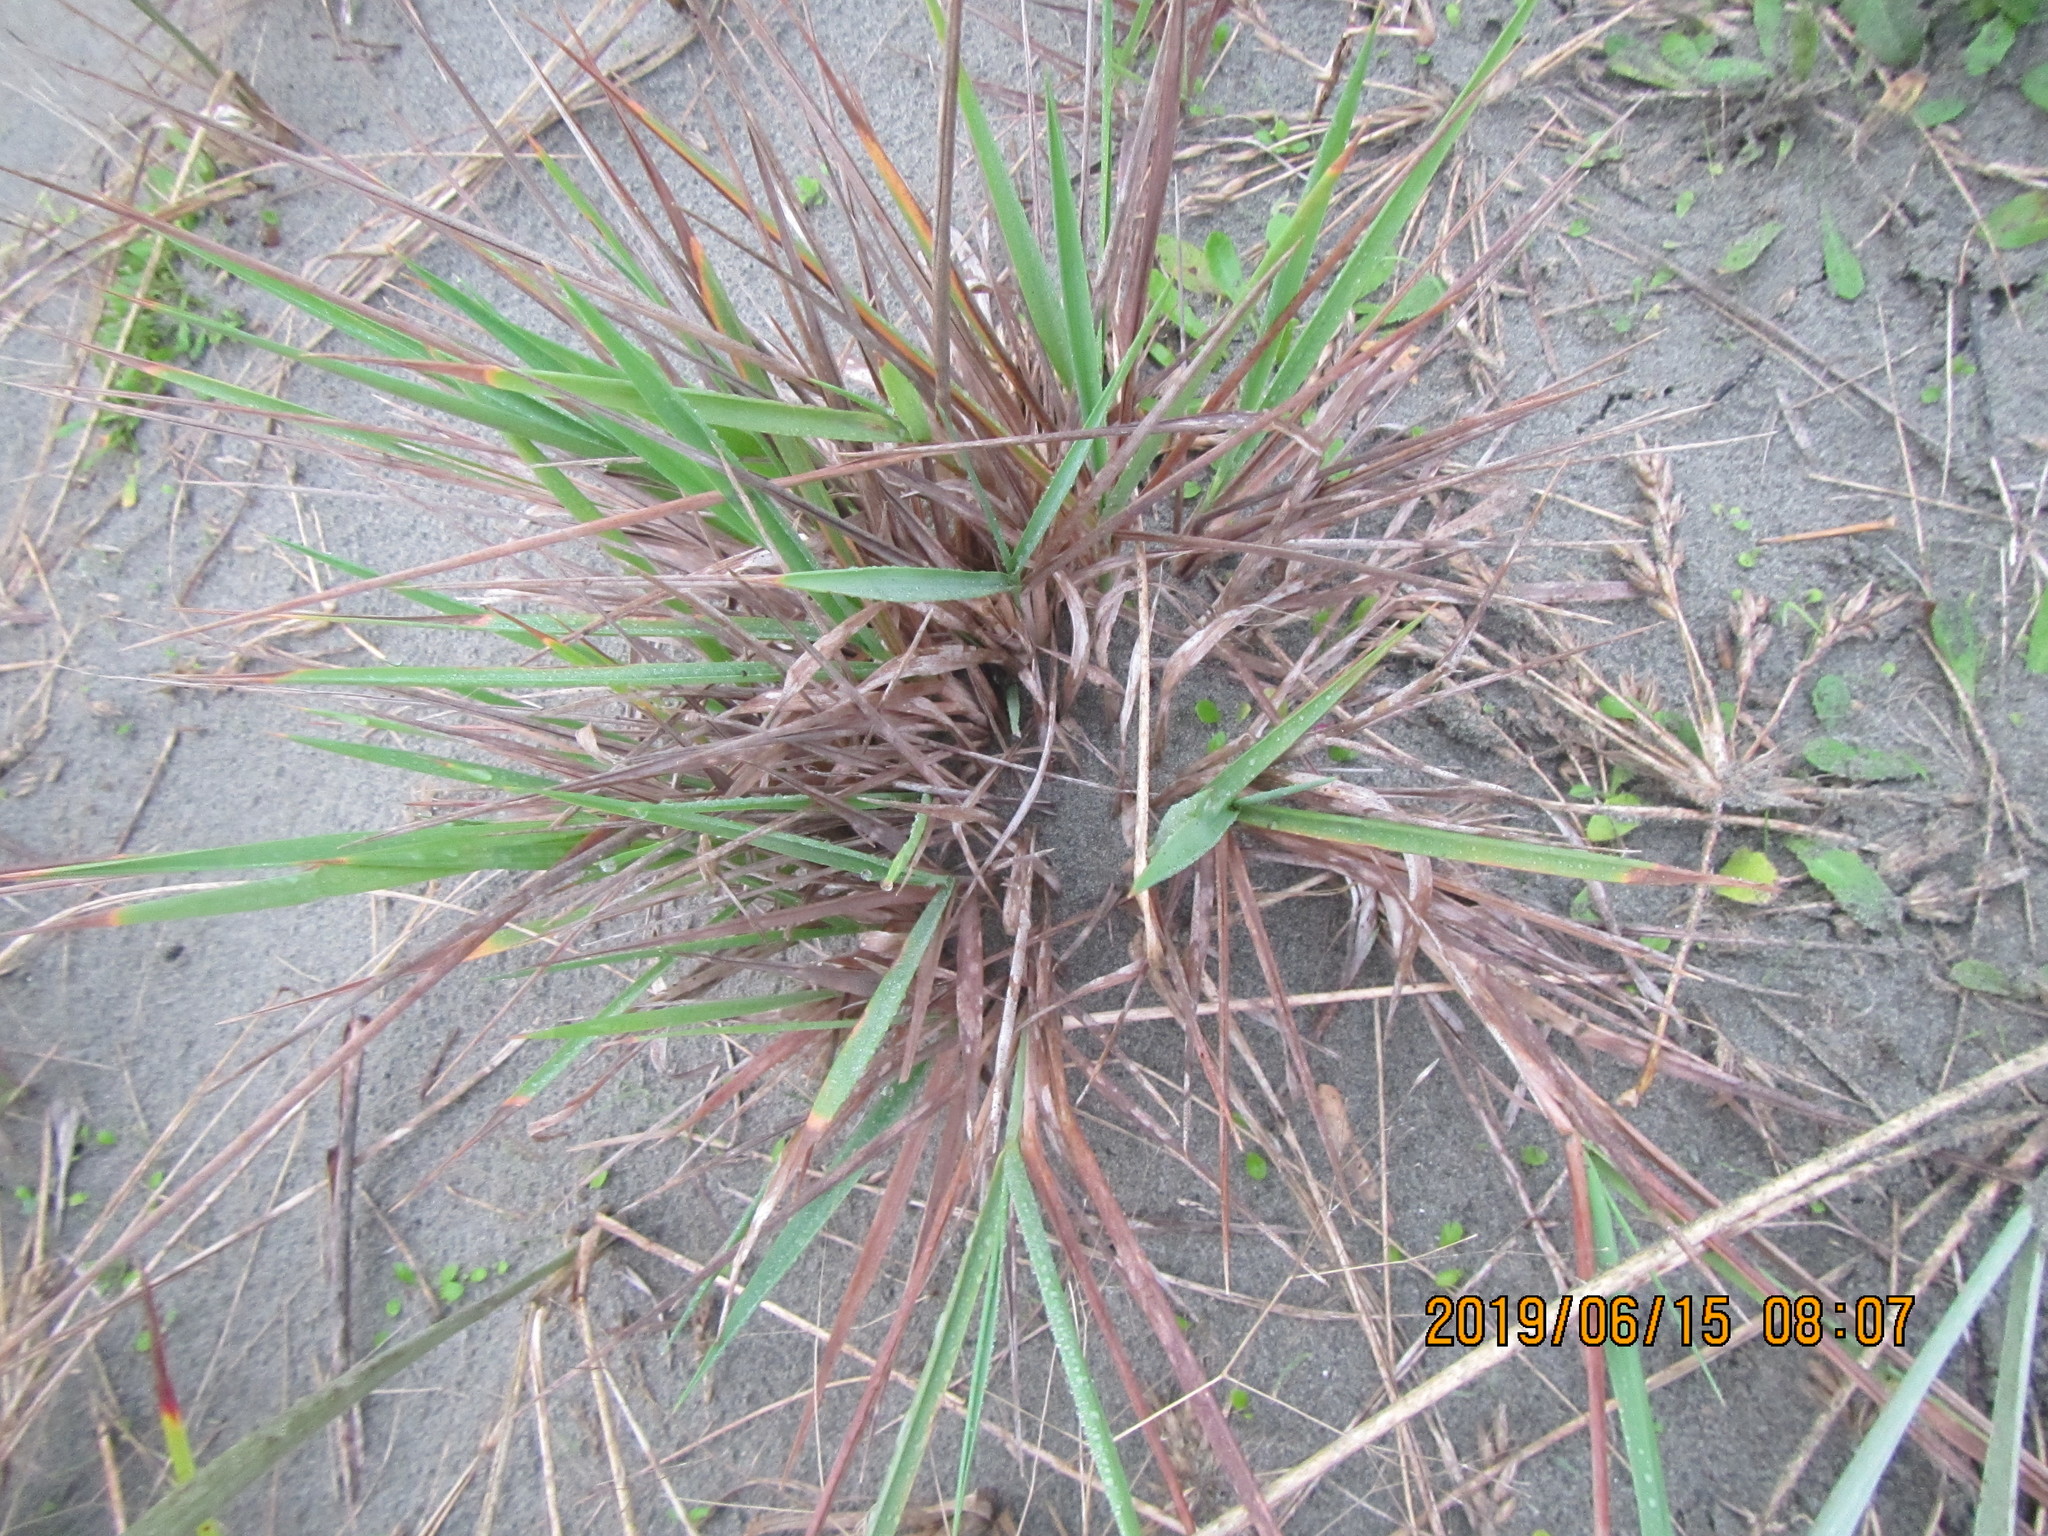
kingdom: Plantae
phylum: Tracheophyta
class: Liliopsida
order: Poales
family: Poaceae
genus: Lachnagrostis
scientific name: Lachnagrostis billardierei
